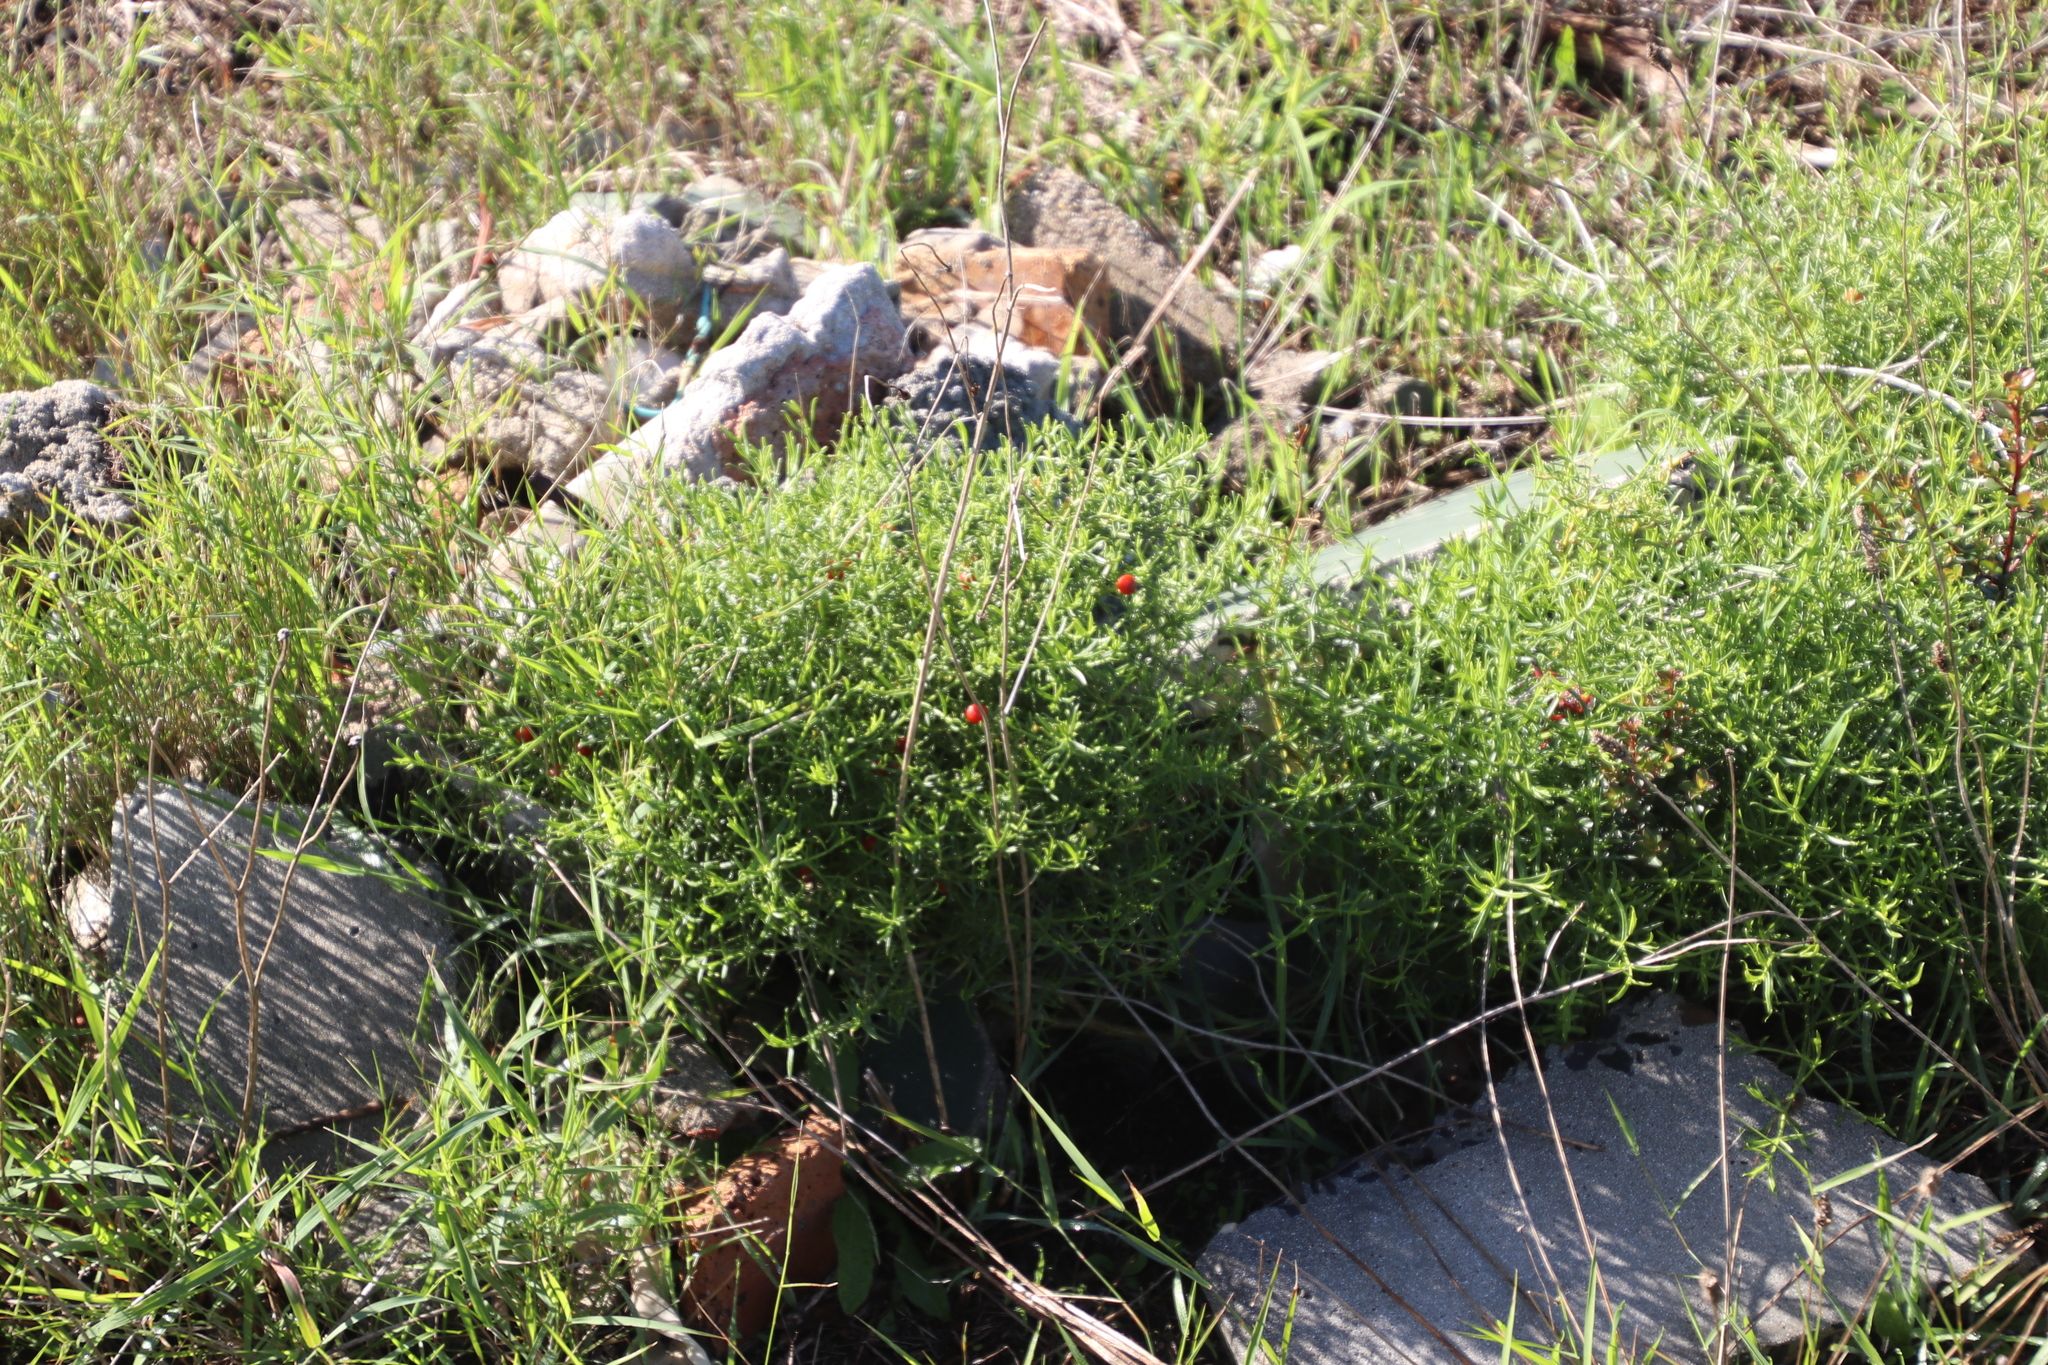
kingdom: Plantae
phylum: Tracheophyta
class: Magnoliopsida
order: Gentianales
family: Gentianaceae
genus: Chironia
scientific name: Chironia baccifera
